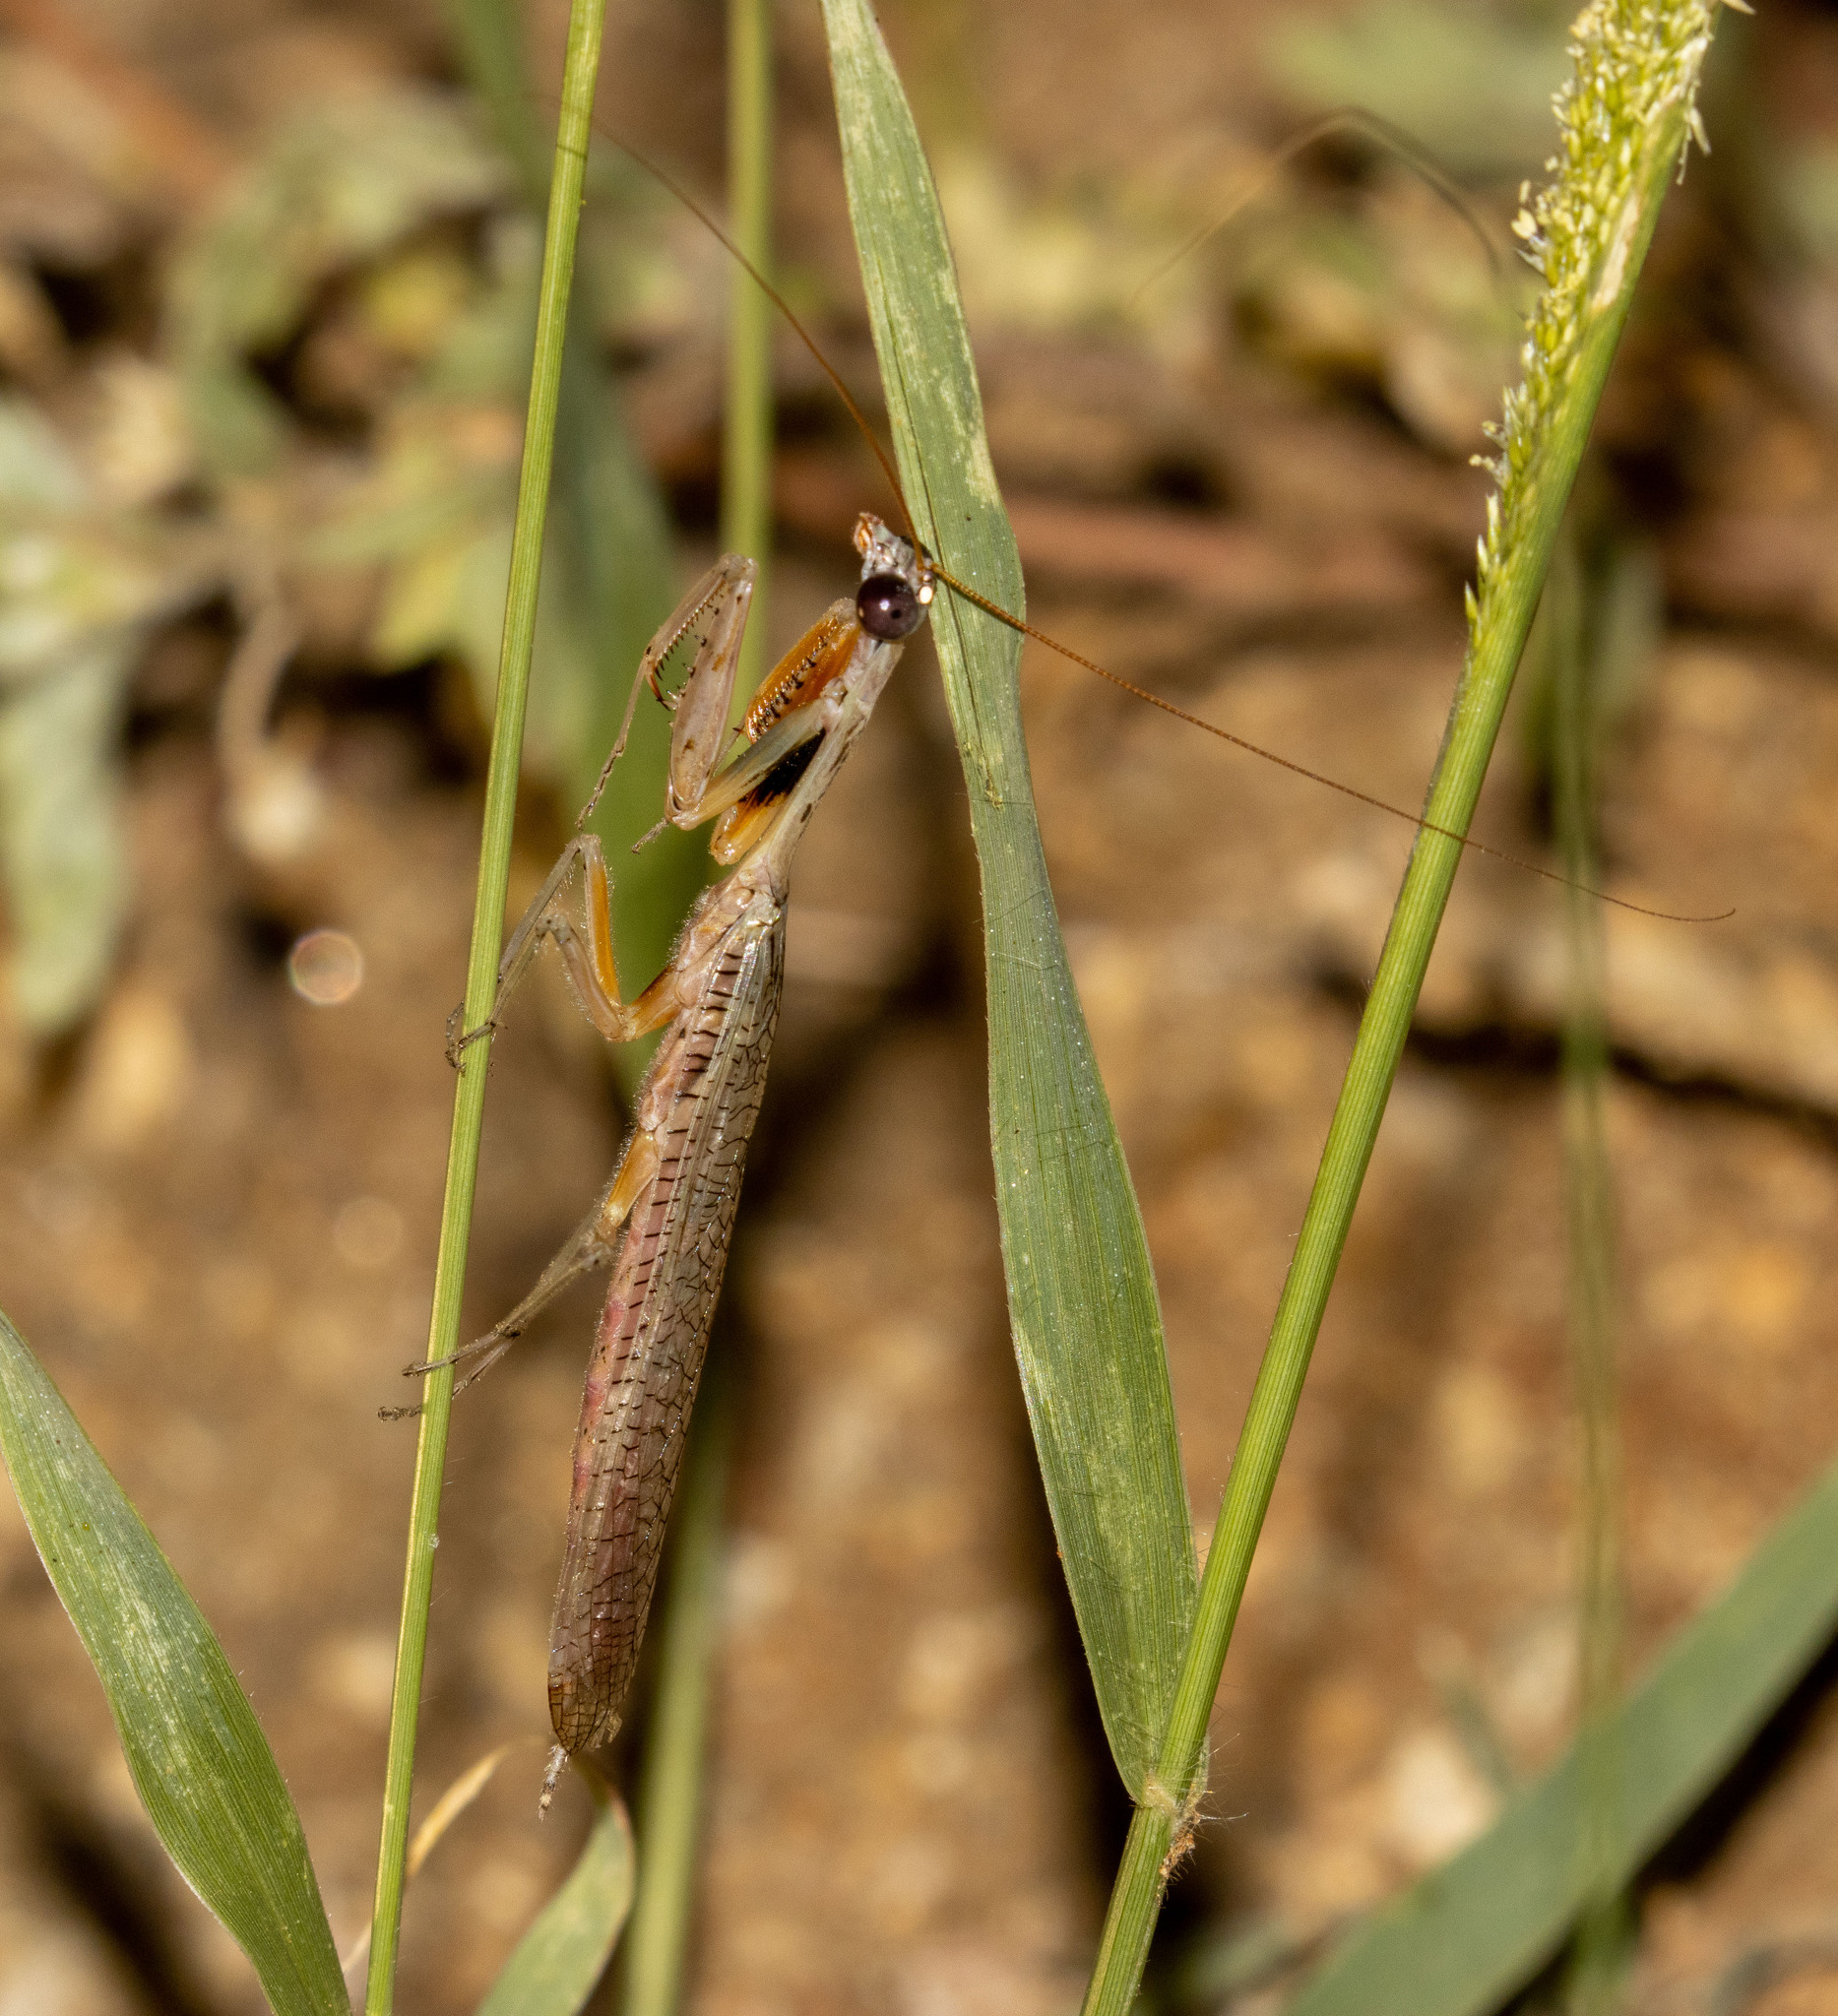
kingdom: Animalia
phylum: Arthropoda
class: Insecta
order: Mantodea
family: Photinaidae
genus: Paraphotina
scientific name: Paraphotina caatingaensis
